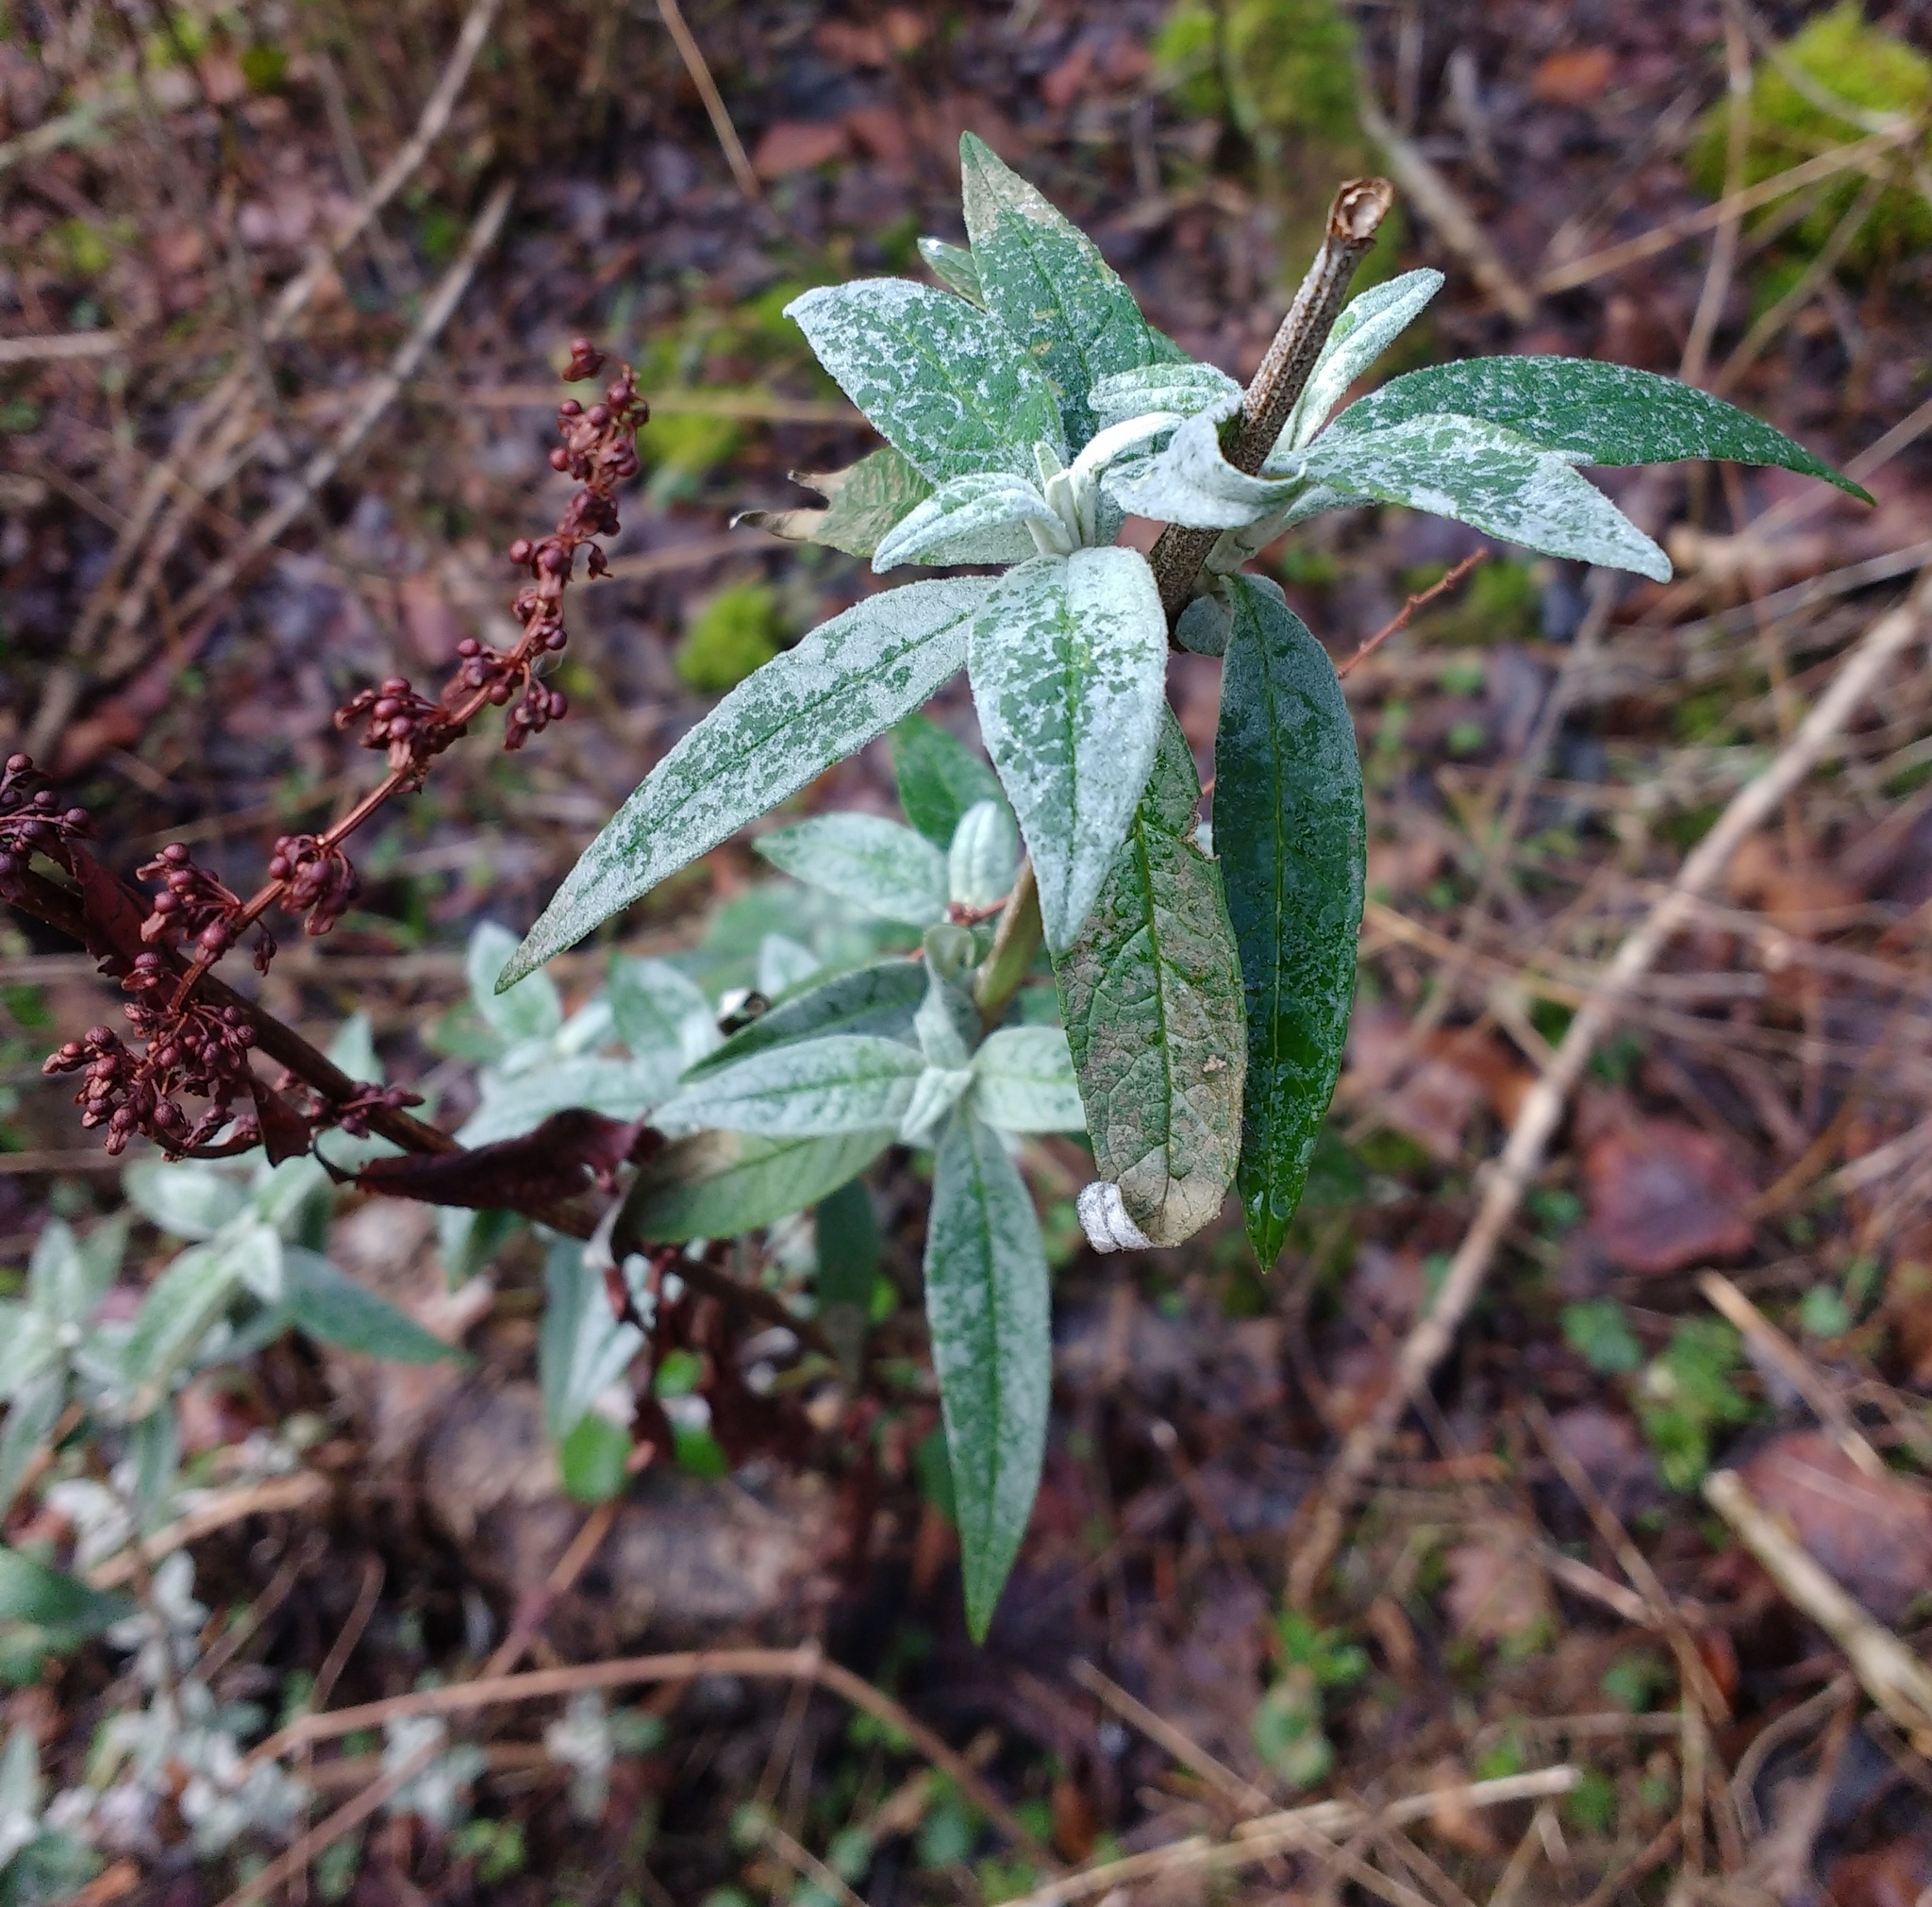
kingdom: Plantae
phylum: Tracheophyta
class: Magnoliopsida
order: Lamiales
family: Scrophulariaceae
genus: Buddleja
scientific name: Buddleja davidii
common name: Butterfly-bush
